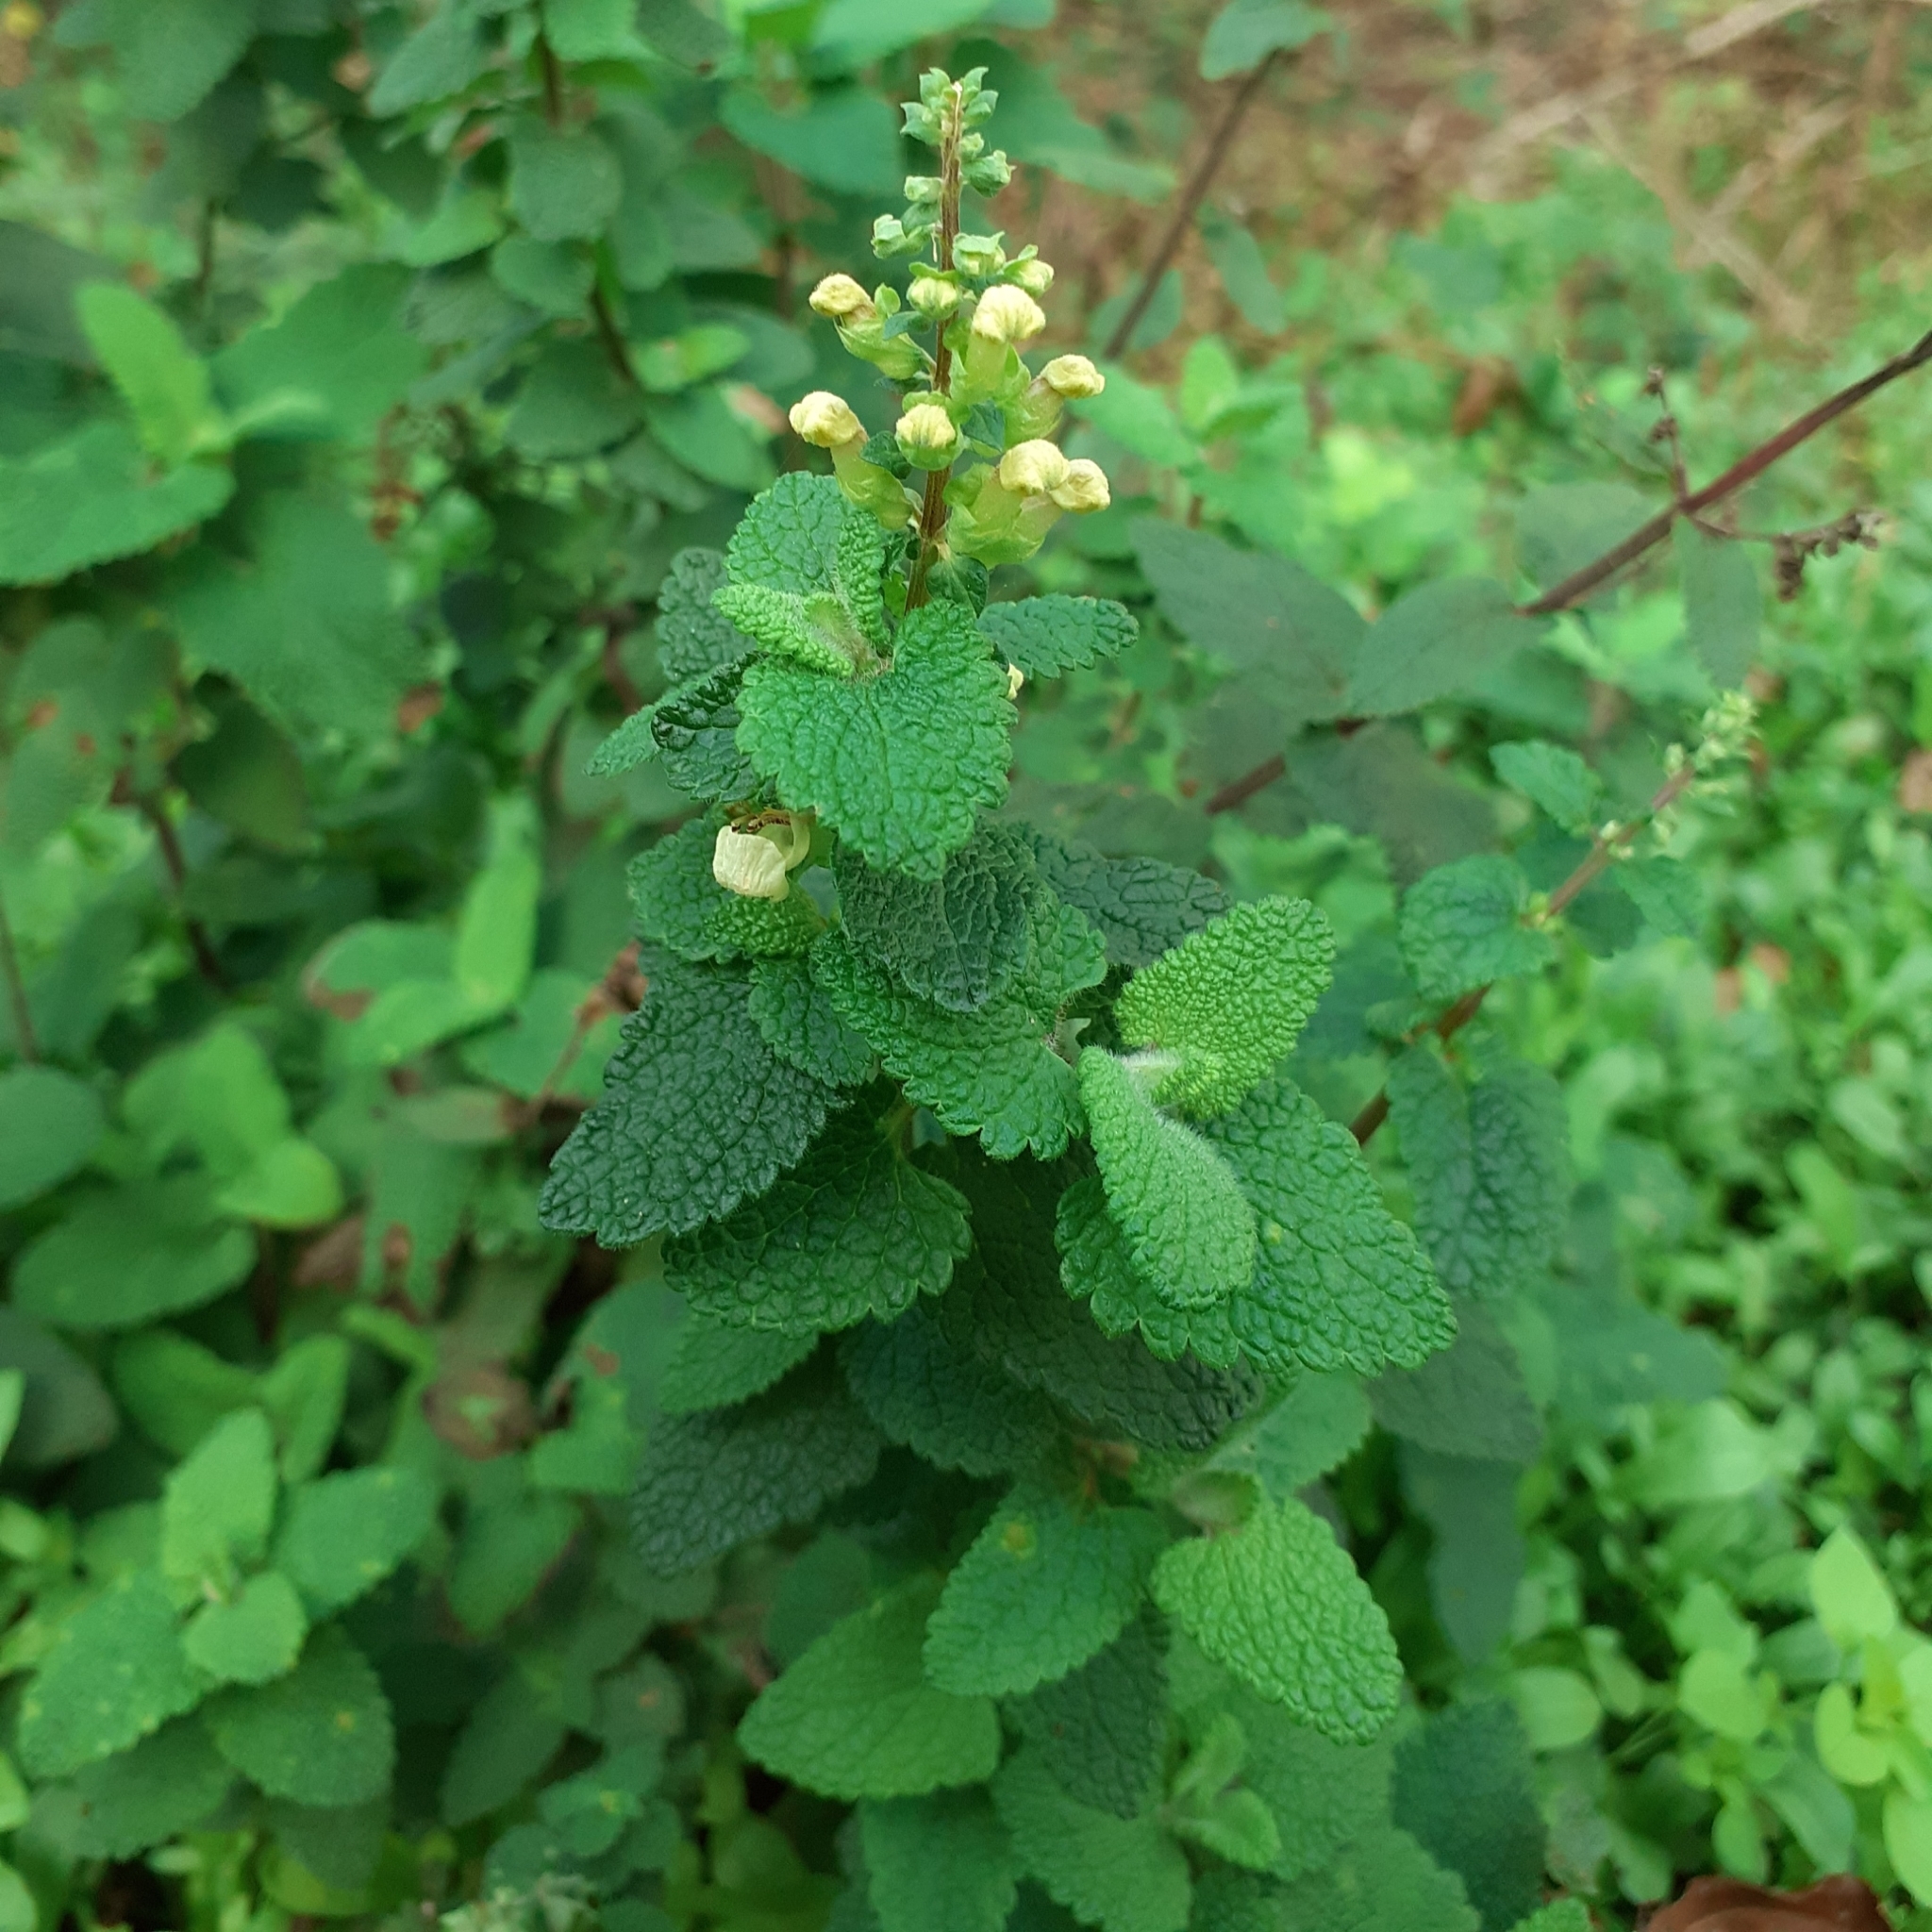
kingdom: Plantae
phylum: Tracheophyta
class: Magnoliopsida
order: Lamiales
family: Lamiaceae
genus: Teucrium
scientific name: Teucrium scorodonia
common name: Woodland germander
